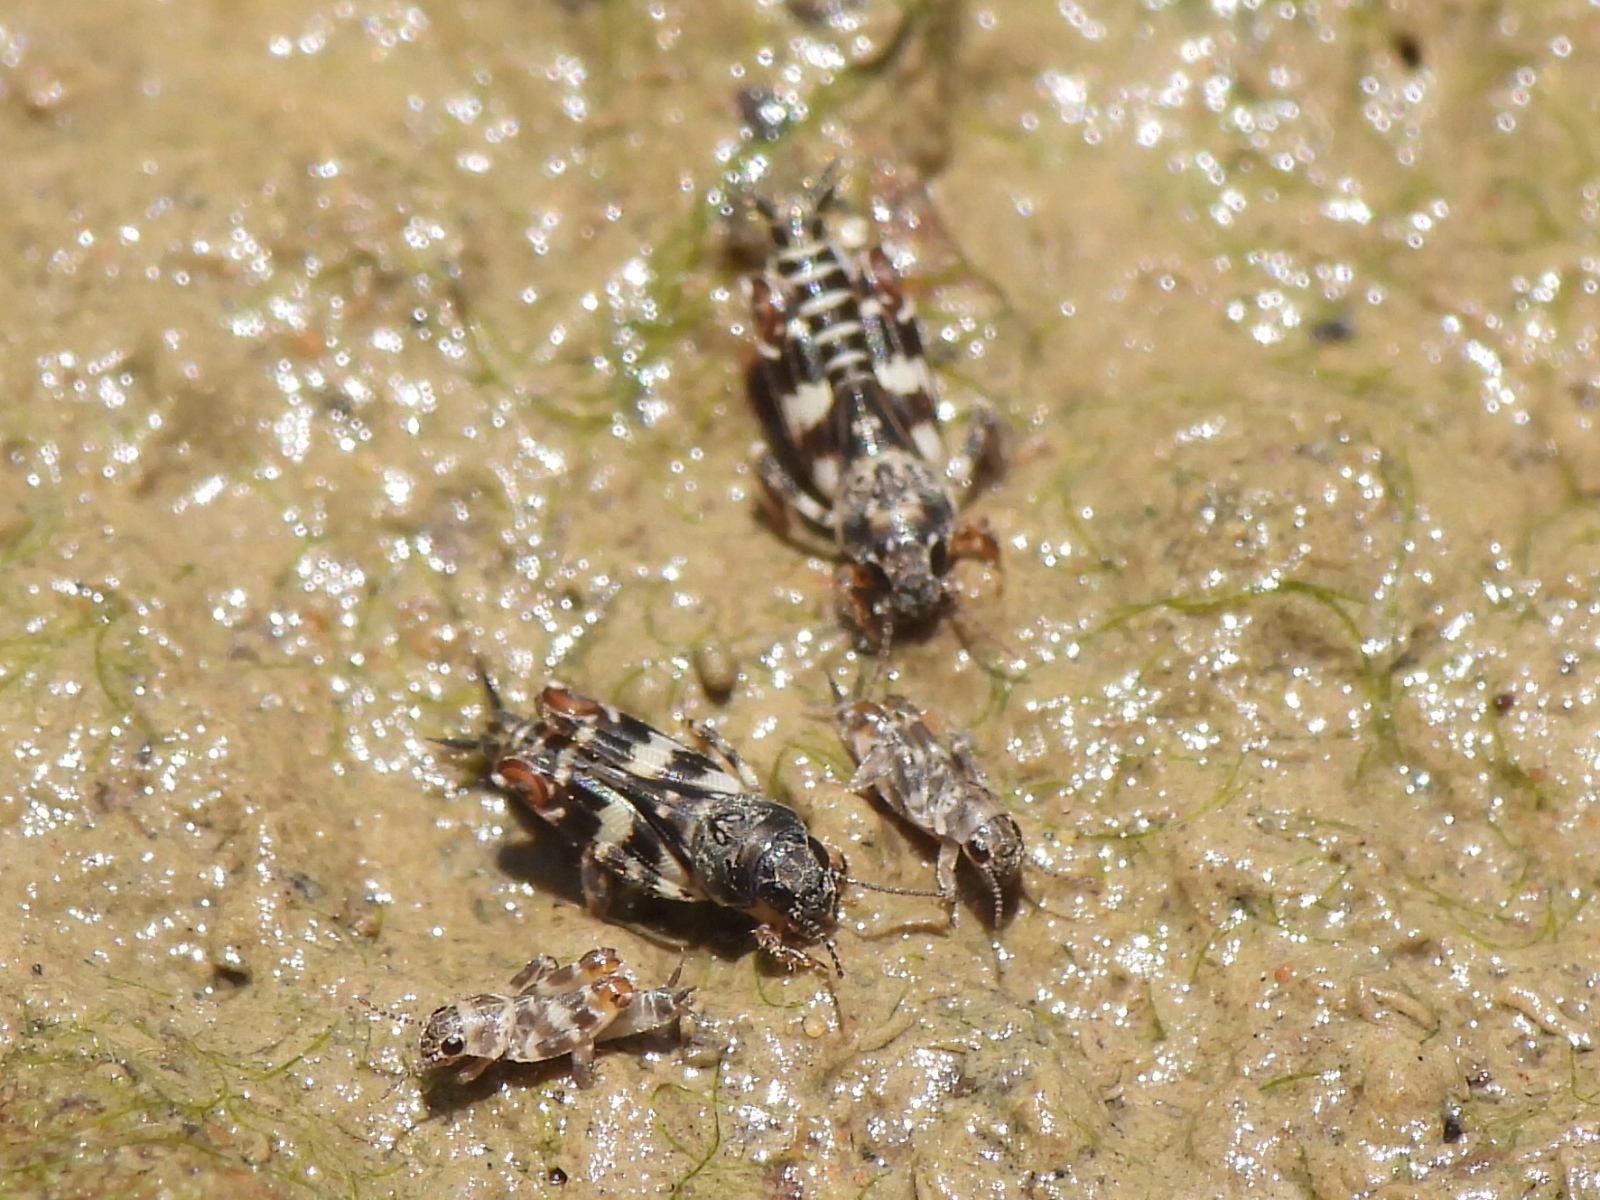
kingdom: Animalia
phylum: Arthropoda
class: Insecta
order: Orthoptera
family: Tridactylidae
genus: Ellipes
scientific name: Ellipes minuta
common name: Minute pygmy locust
